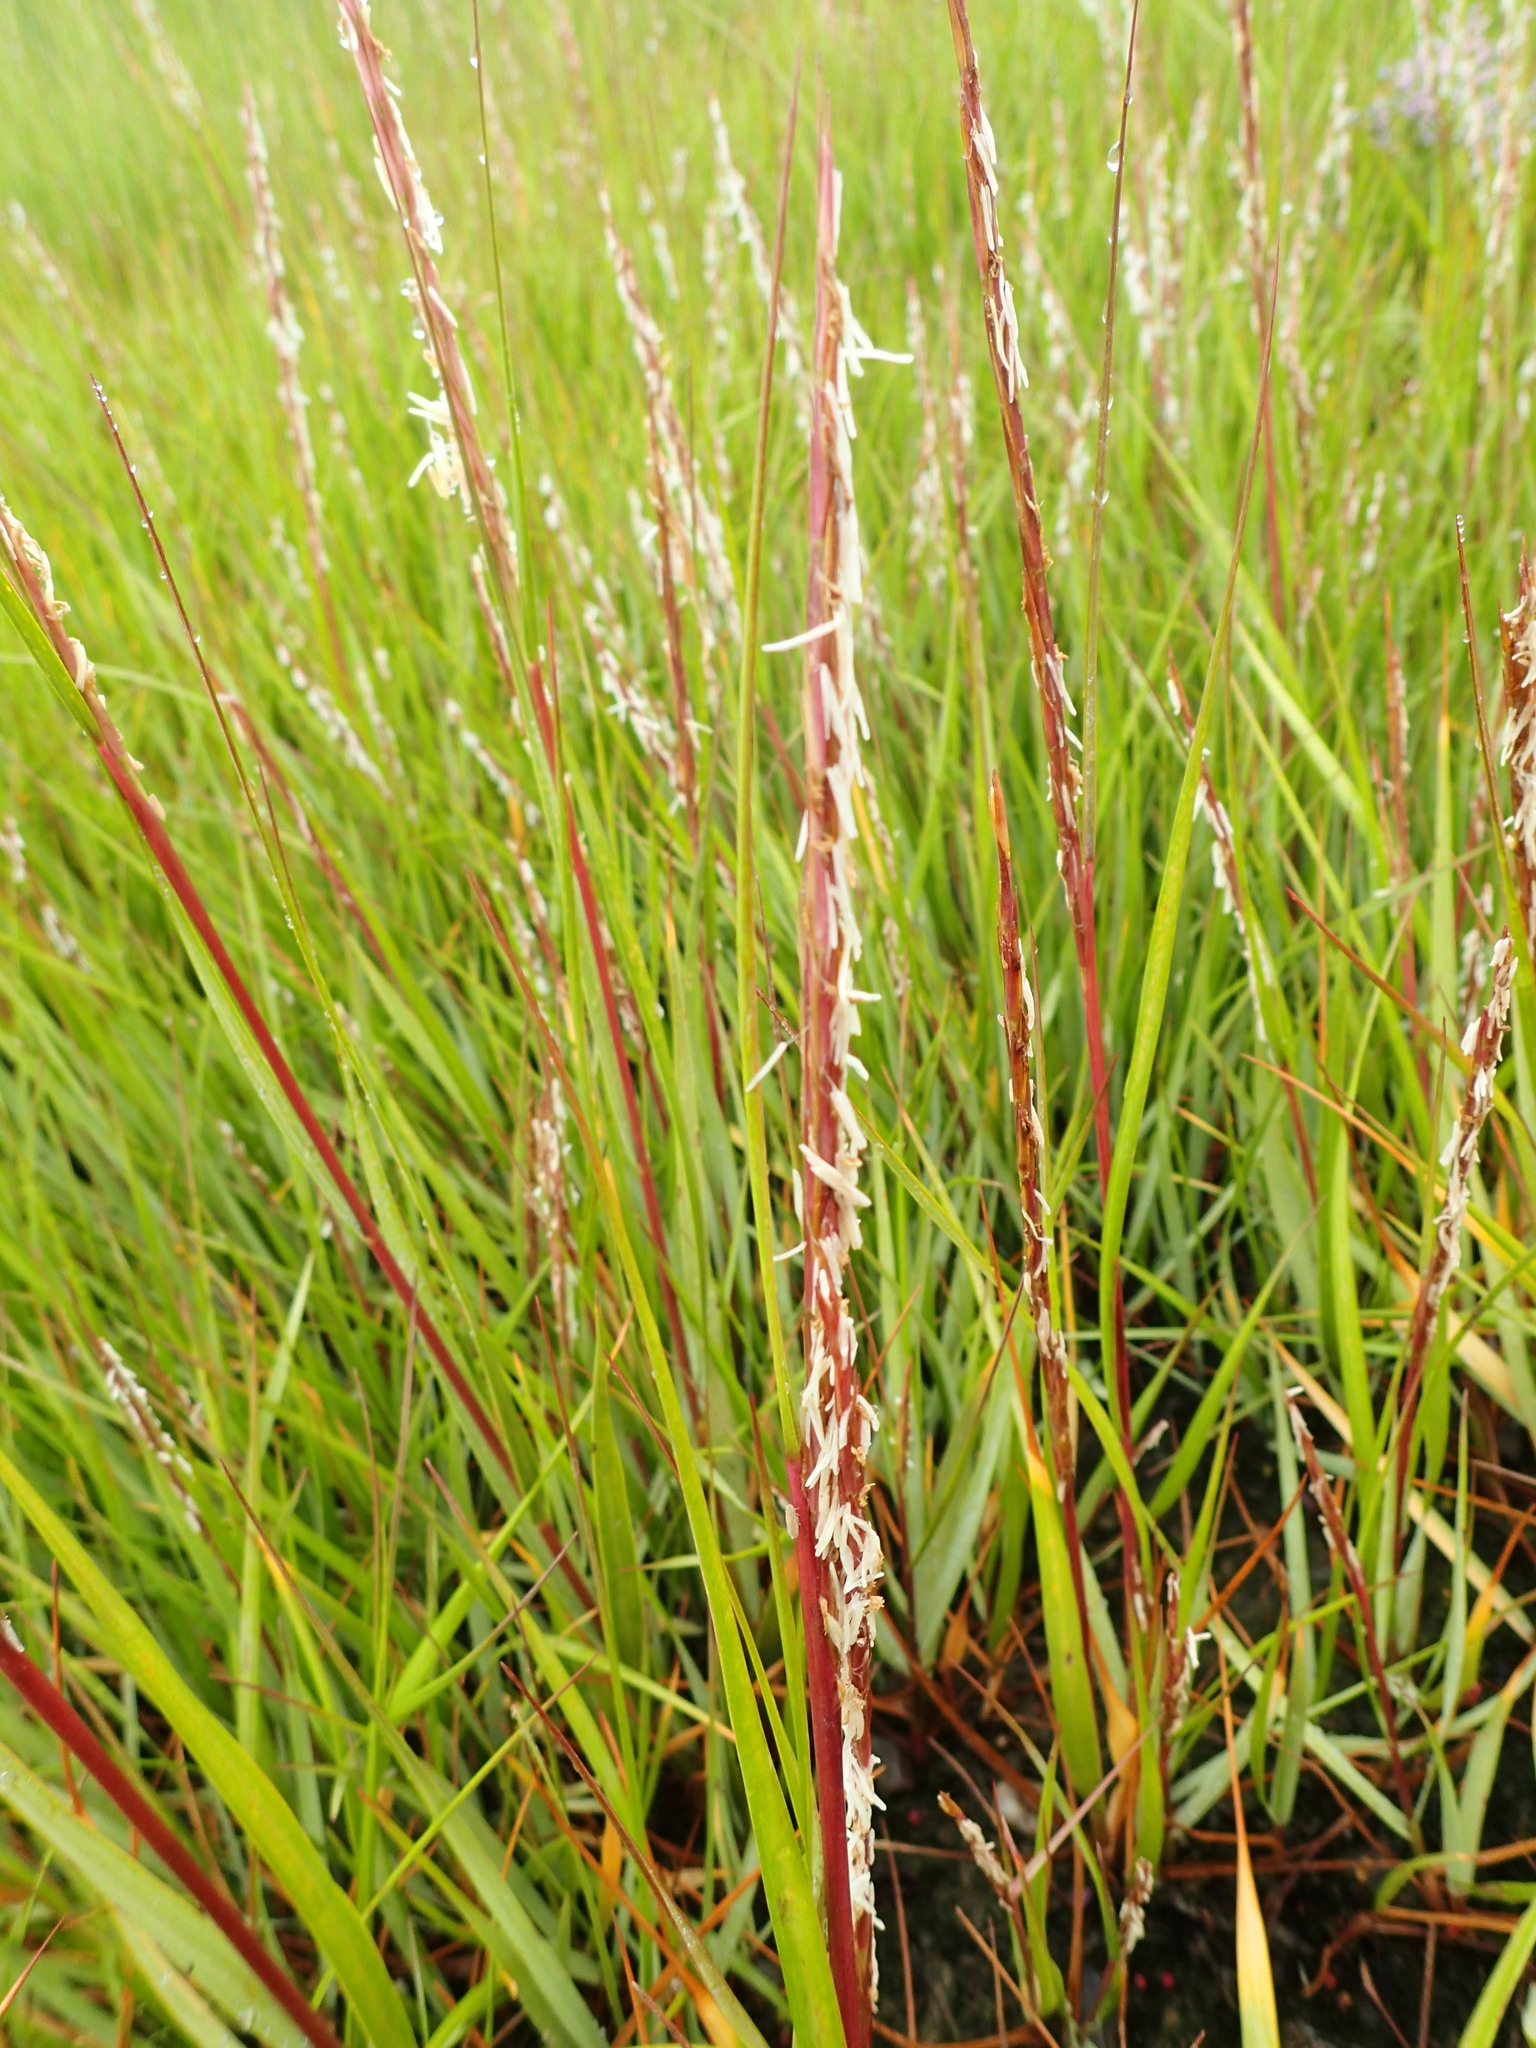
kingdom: Plantae
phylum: Tracheophyta
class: Liliopsida
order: Poales
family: Poaceae
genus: Sporobolus
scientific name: Sporobolus alterniflorus
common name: Atlantic cordgrass
